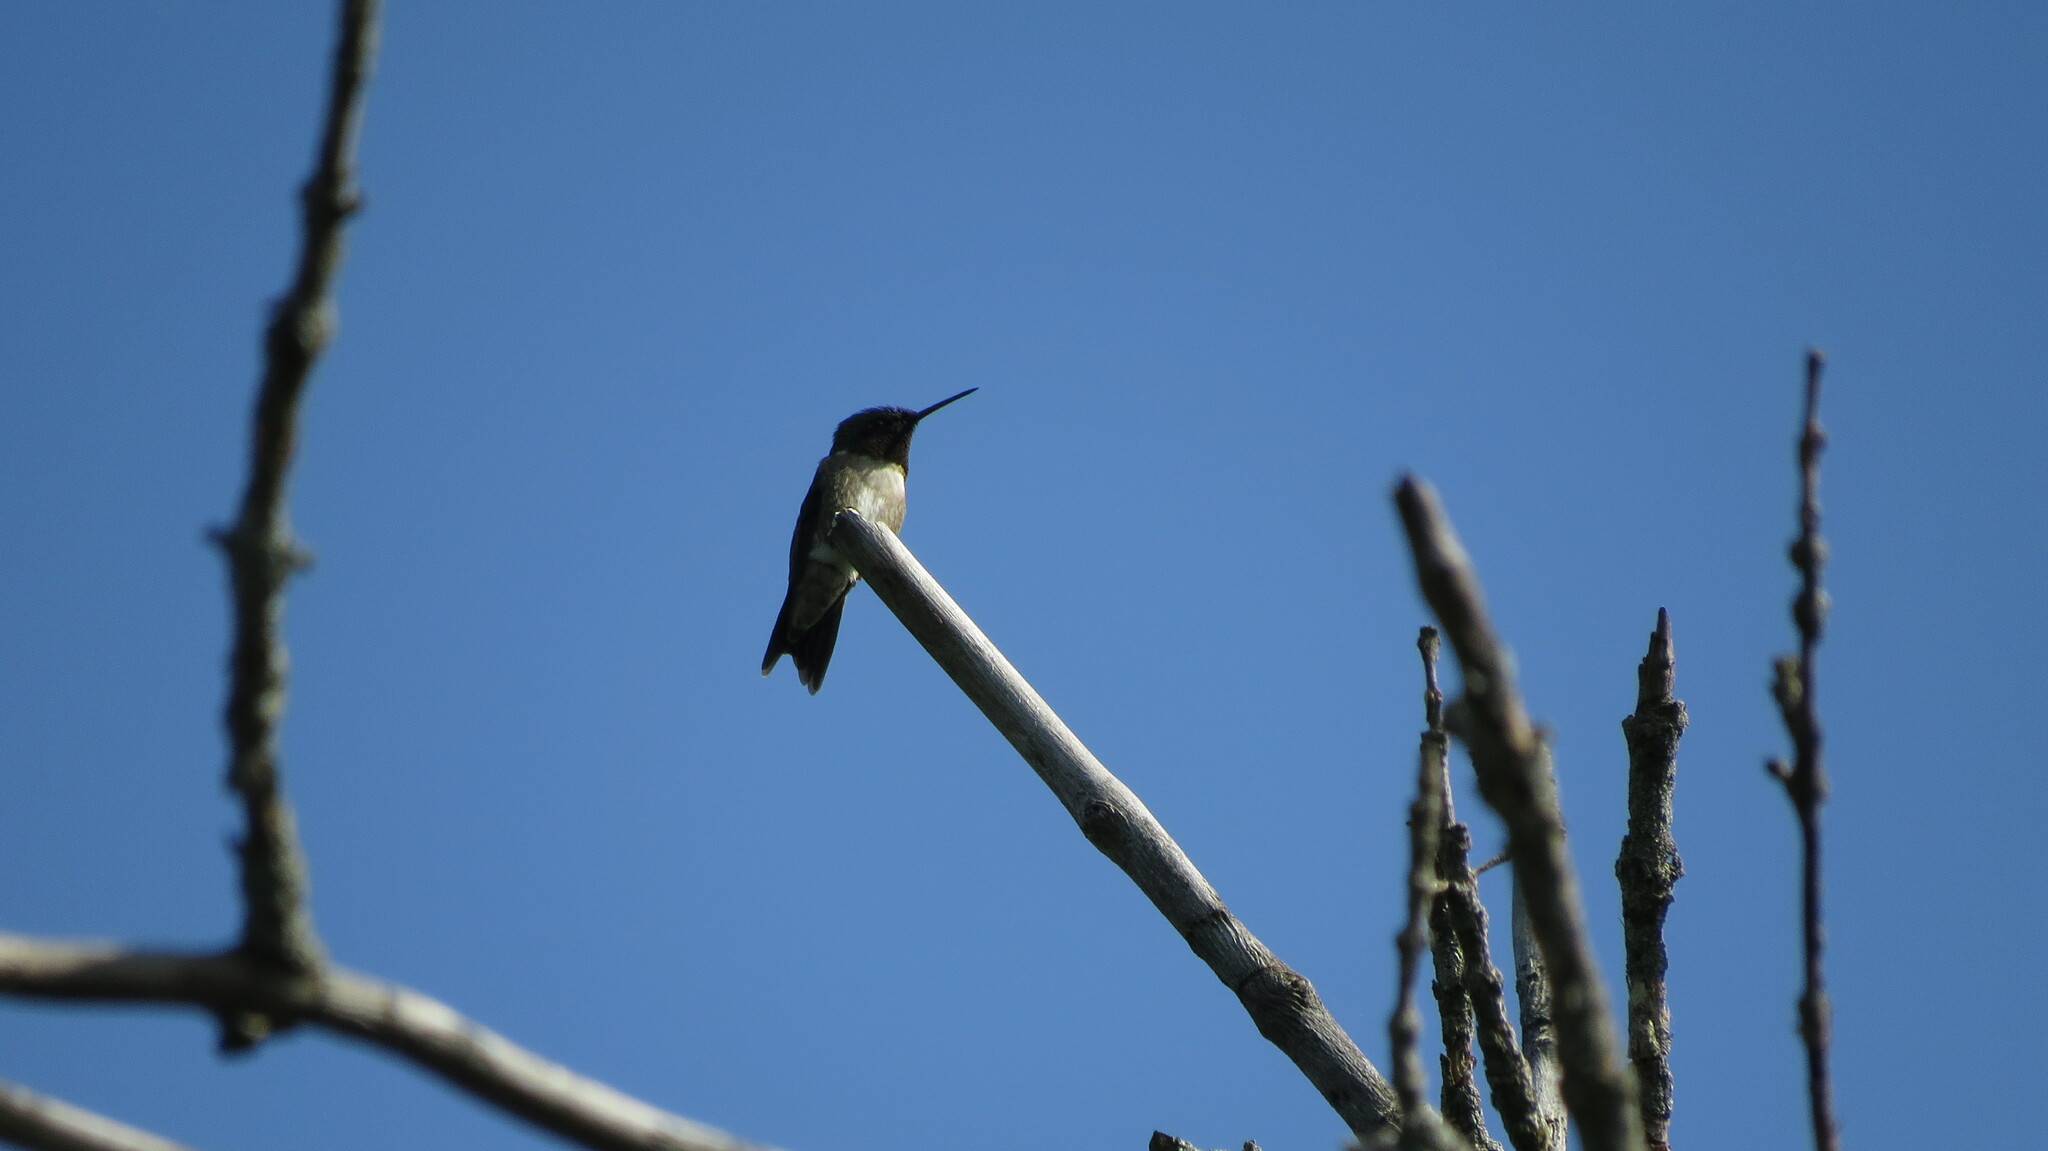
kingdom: Animalia
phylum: Chordata
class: Aves
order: Apodiformes
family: Trochilidae
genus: Archilochus
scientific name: Archilochus colubris
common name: Ruby-throated hummingbird
